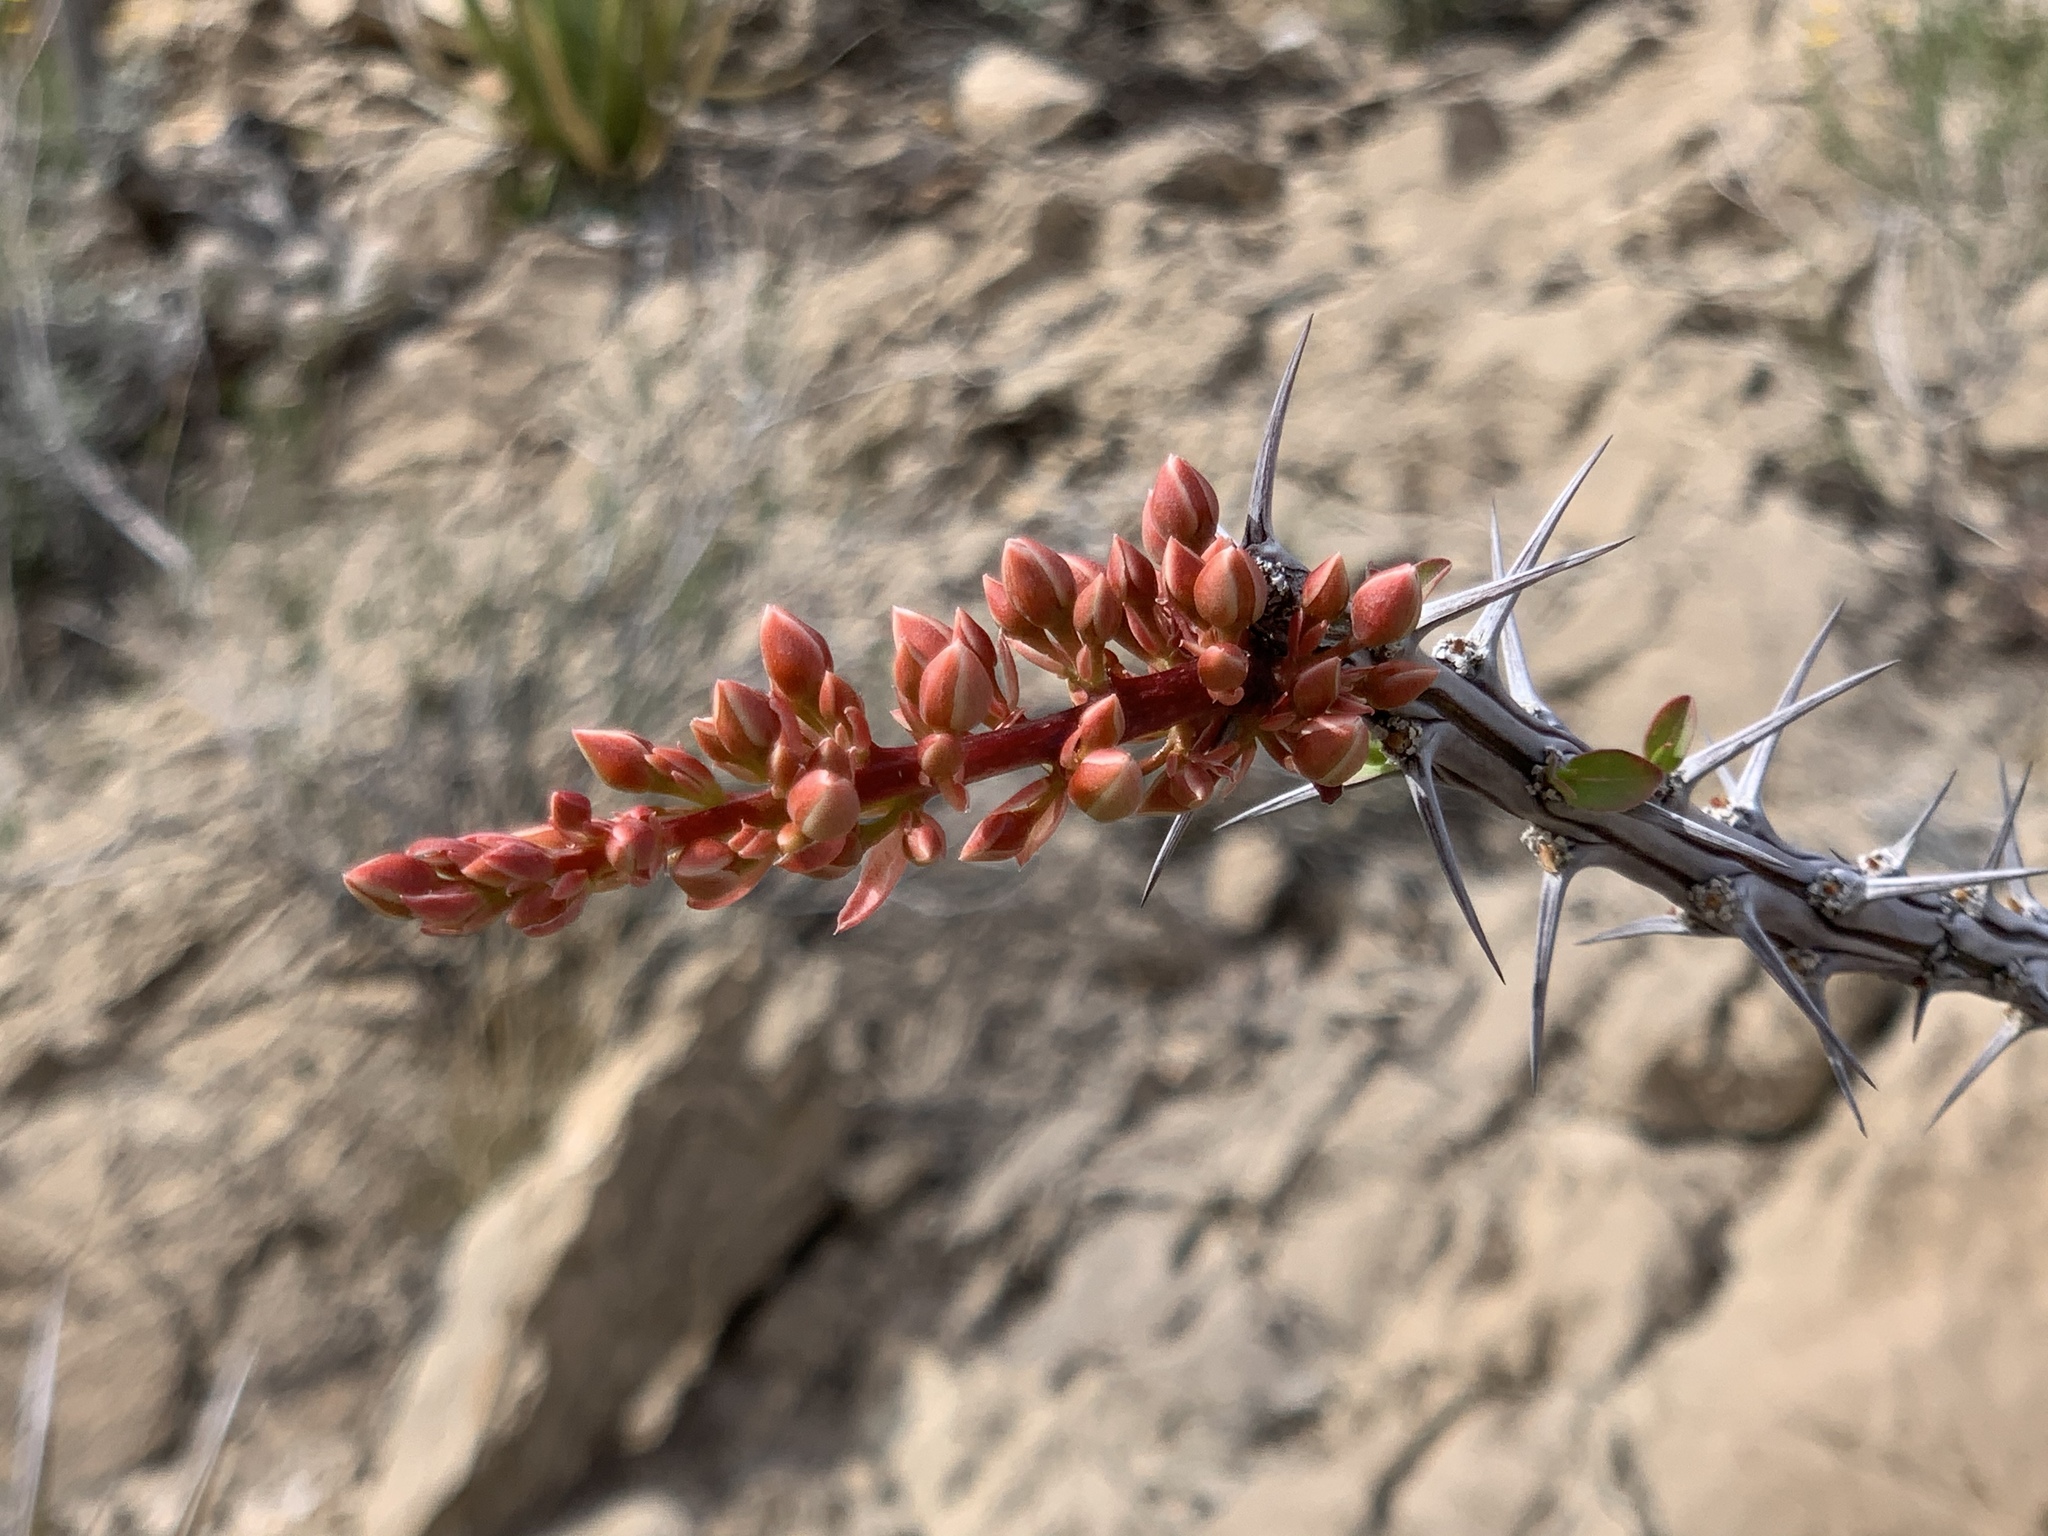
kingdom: Plantae
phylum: Tracheophyta
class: Magnoliopsida
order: Ericales
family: Fouquieriaceae
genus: Fouquieria
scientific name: Fouquieria splendens
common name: Vine-cactus
